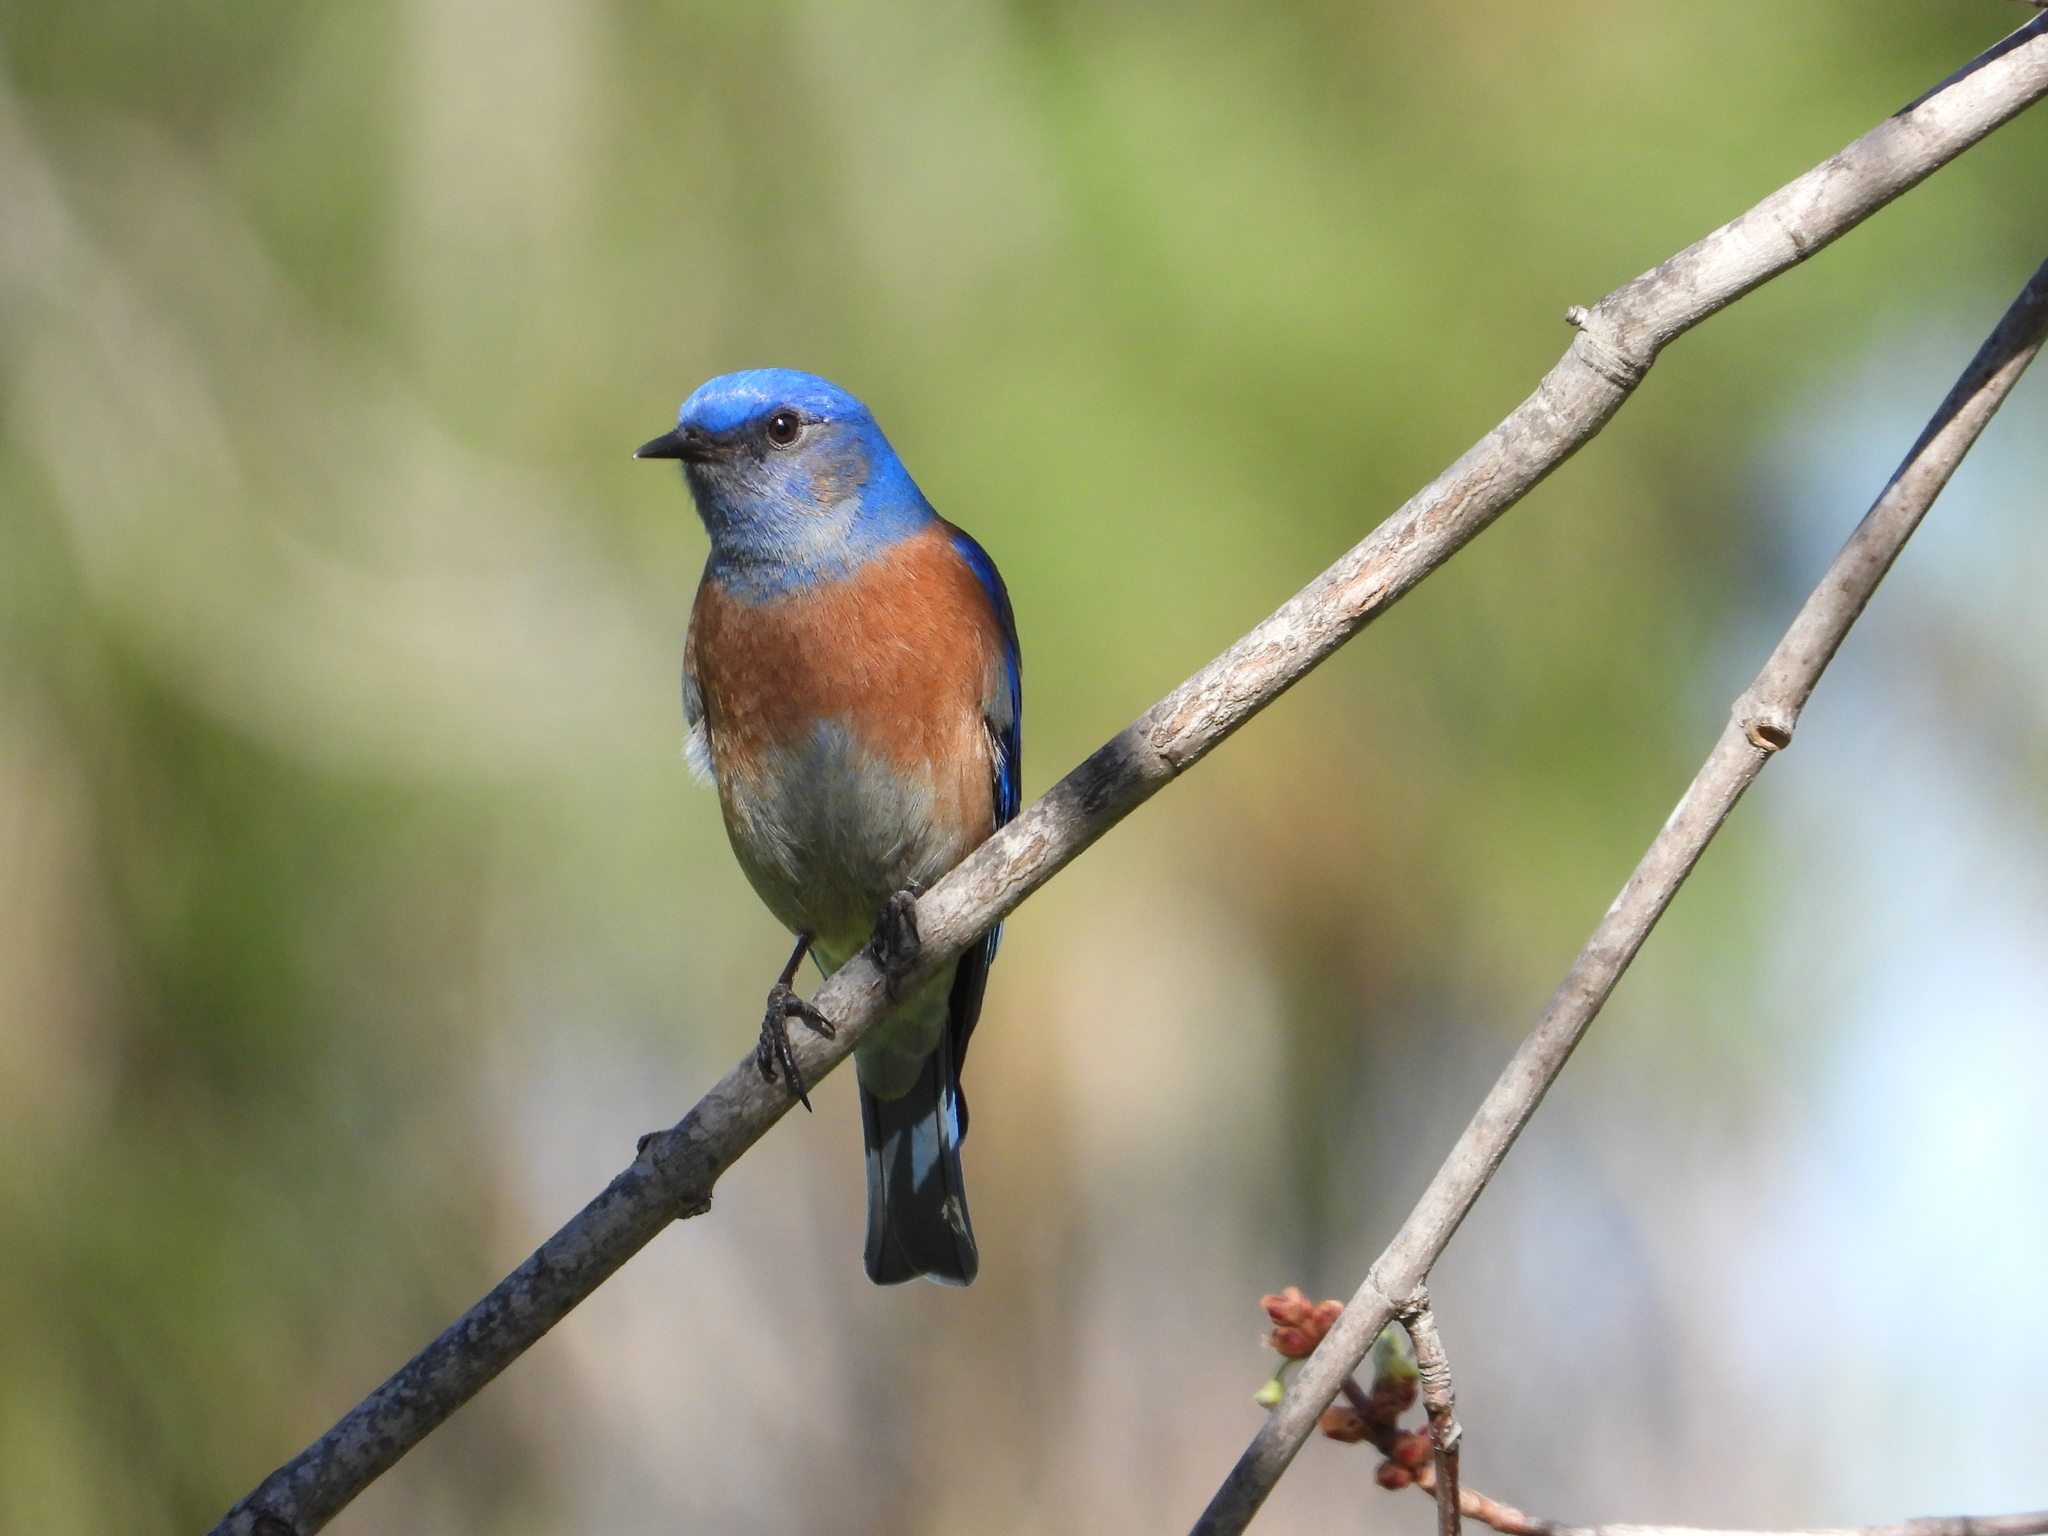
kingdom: Animalia
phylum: Chordata
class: Aves
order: Passeriformes
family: Turdidae
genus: Sialia
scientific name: Sialia mexicana
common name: Western bluebird
